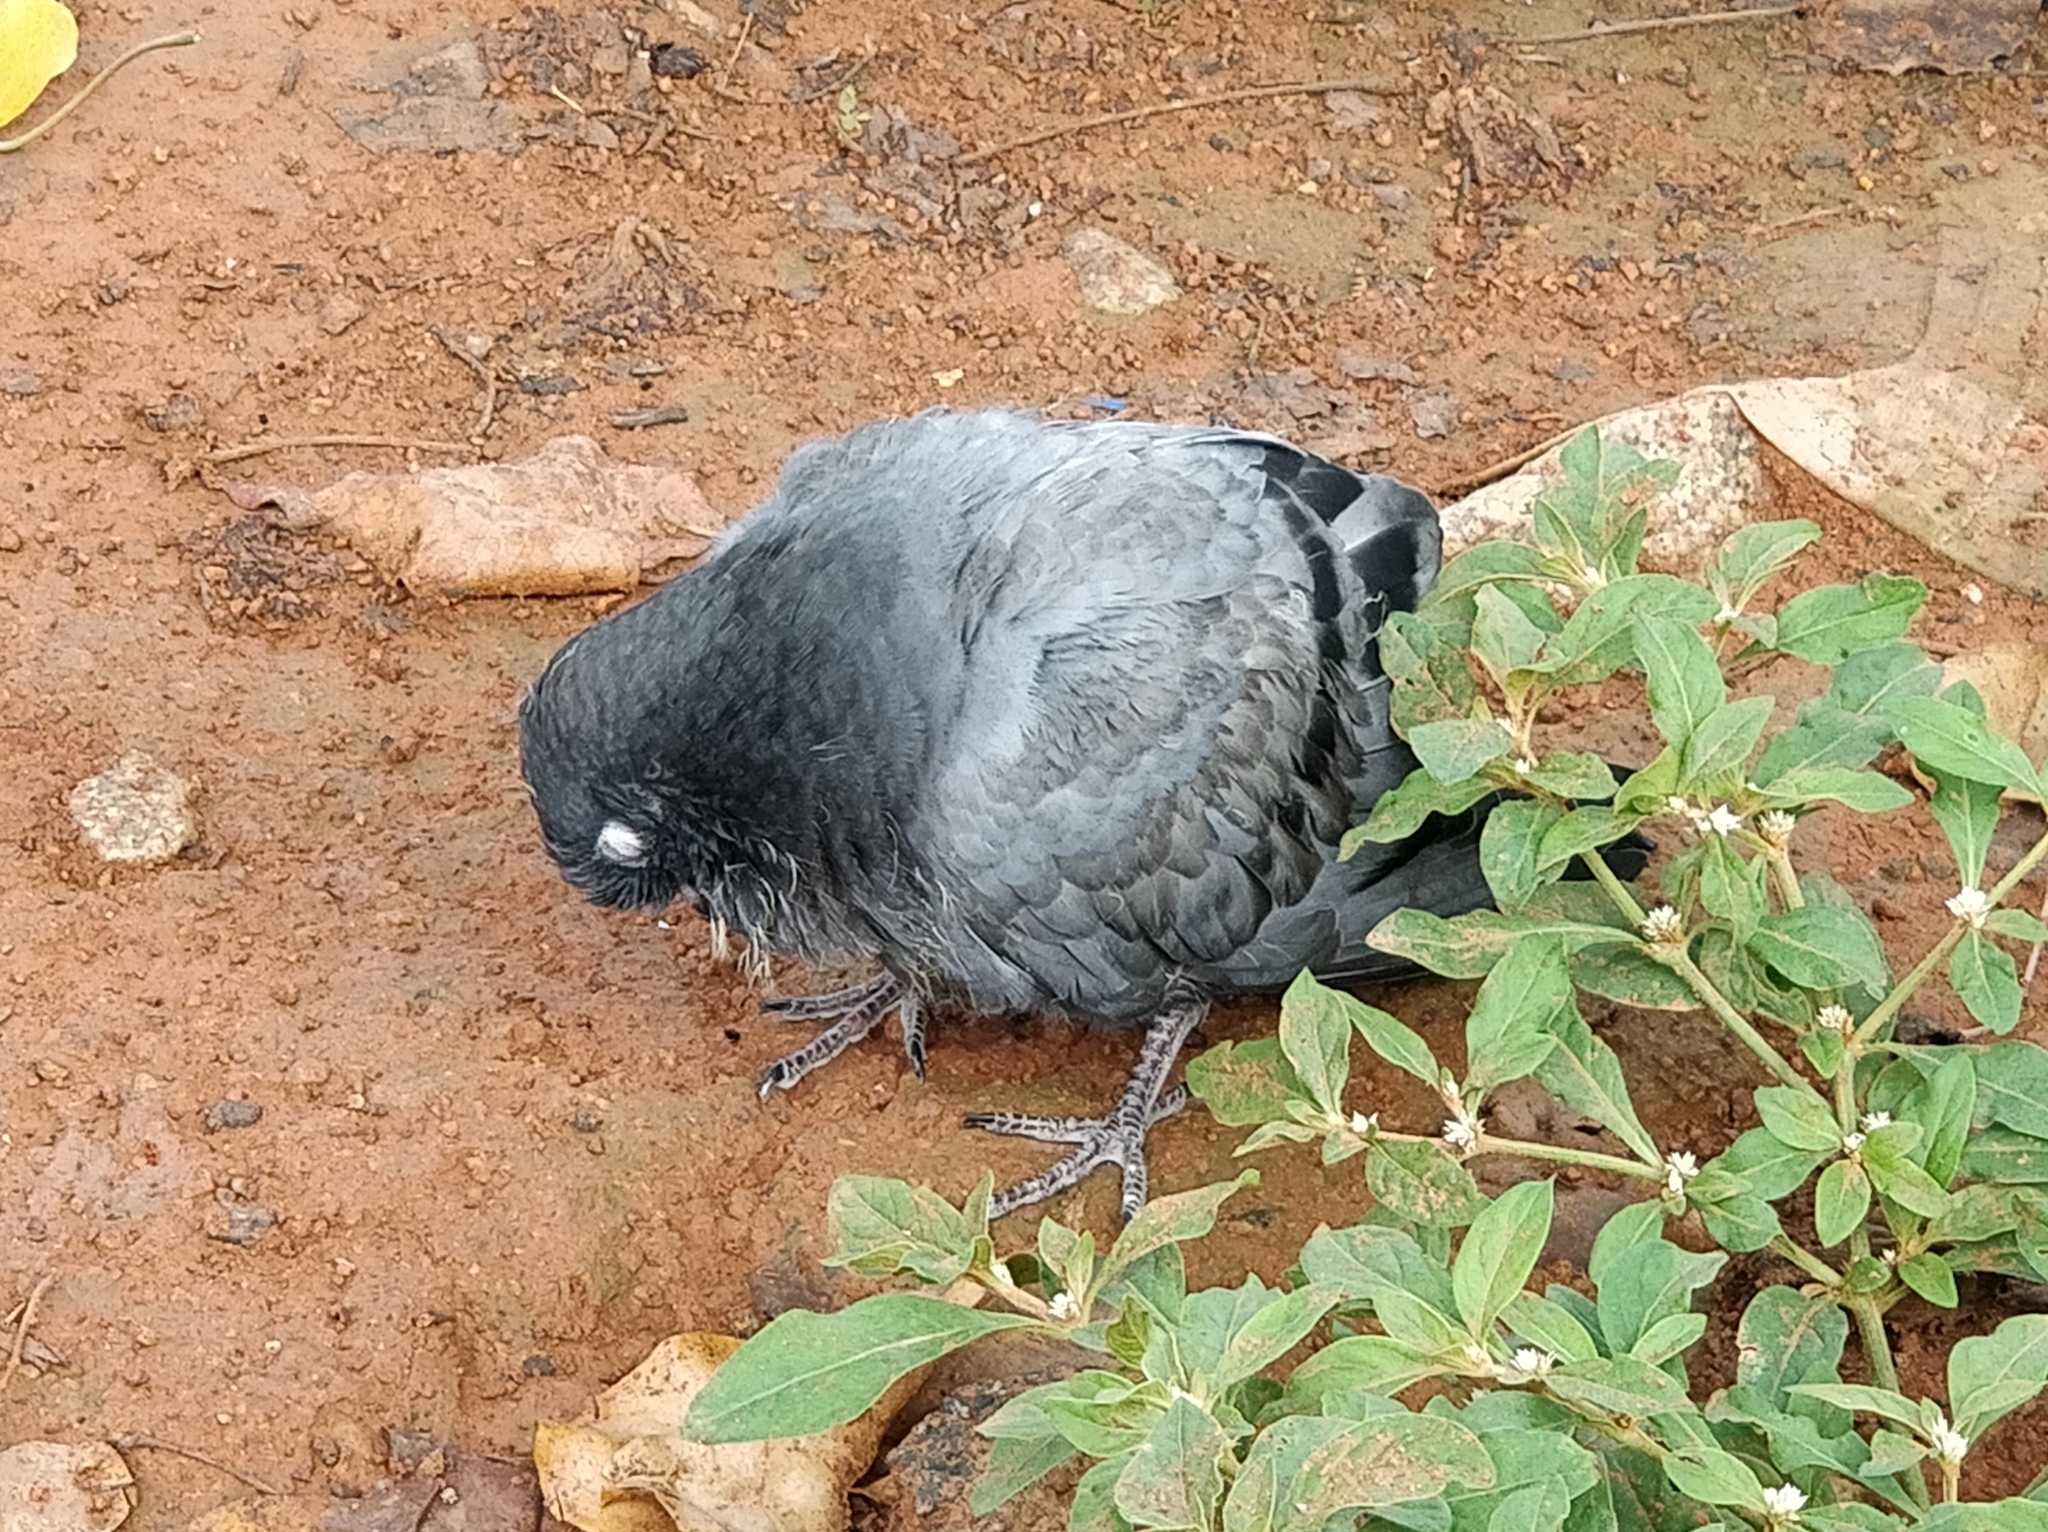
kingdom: Animalia
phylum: Chordata
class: Aves
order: Columbiformes
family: Columbidae
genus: Columba
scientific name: Columba livia
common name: Rock pigeon
